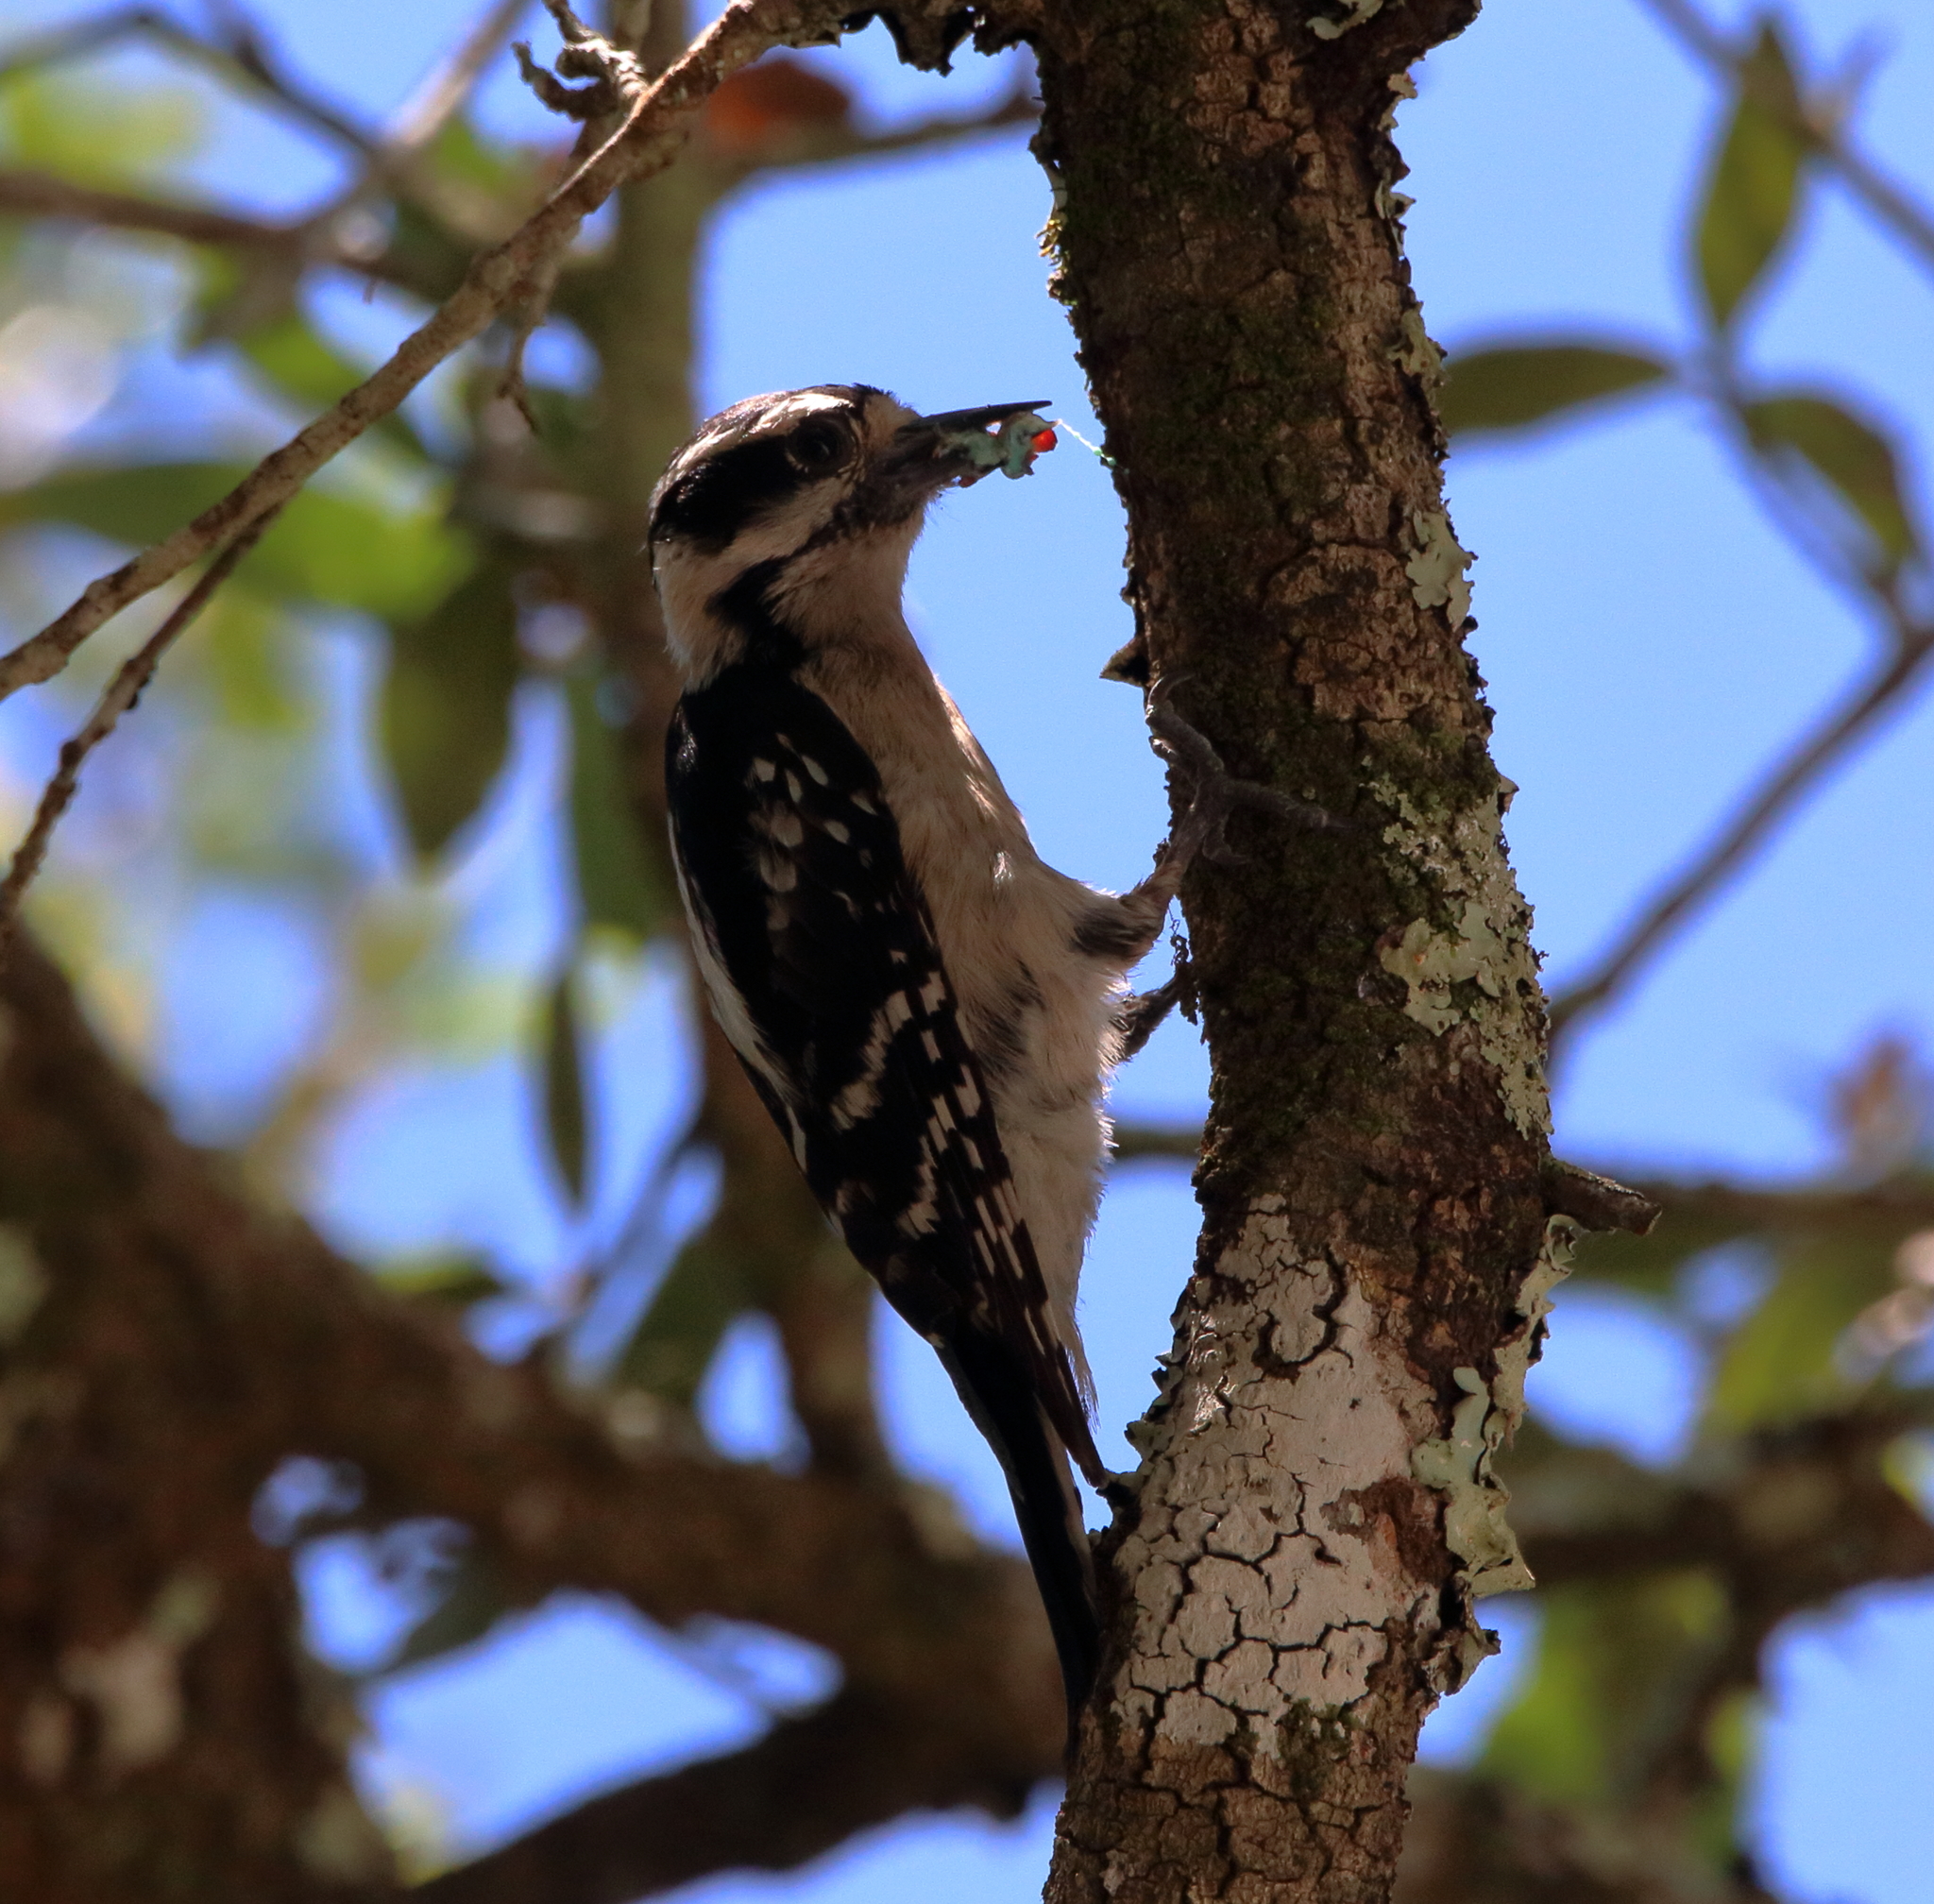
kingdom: Animalia
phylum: Chordata
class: Aves
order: Piciformes
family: Picidae
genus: Dryobates
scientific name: Dryobates pubescens
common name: Downy woodpecker
